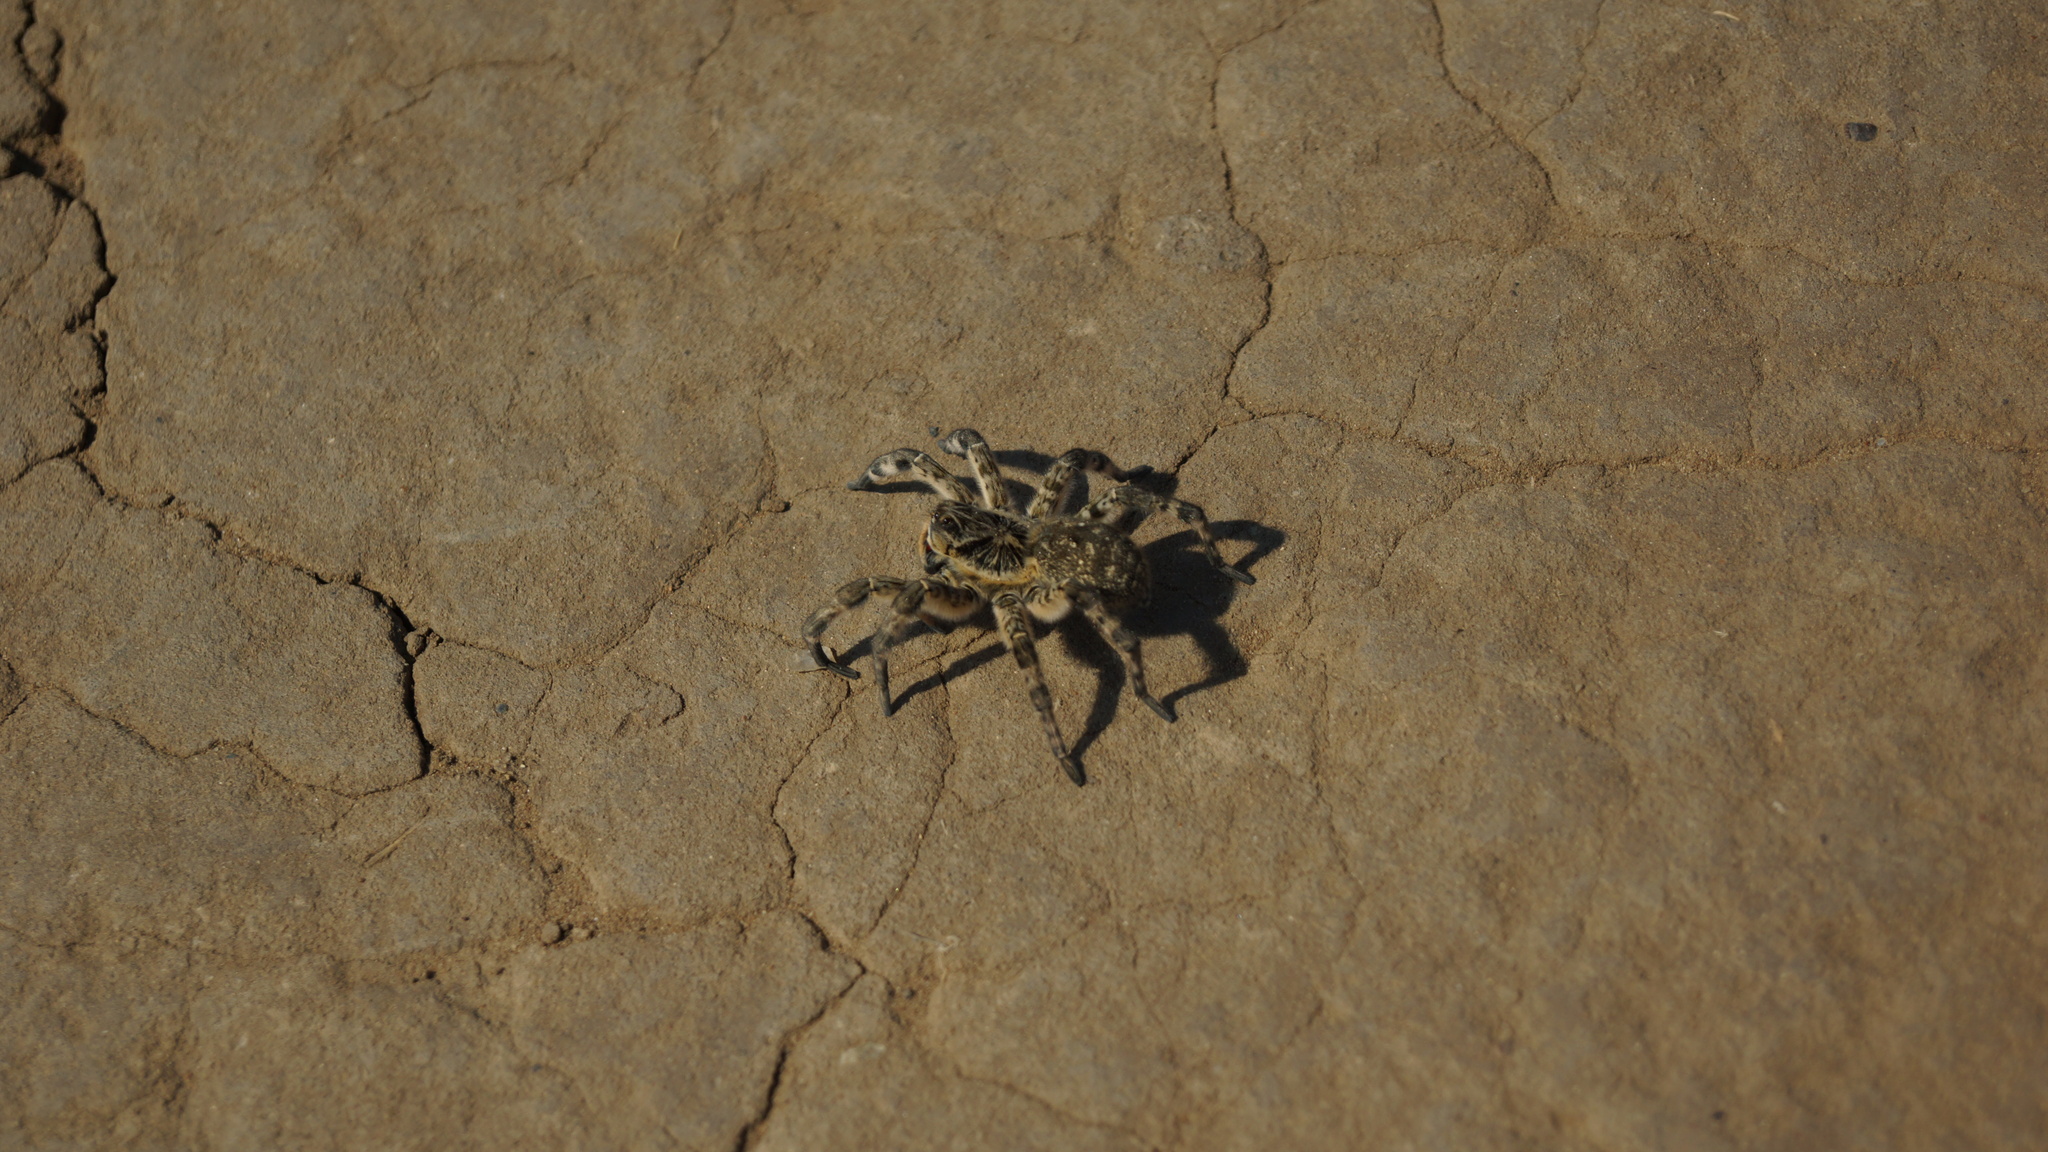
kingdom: Animalia
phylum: Arthropoda
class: Arachnida
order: Araneae
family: Lycosidae
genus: Lycosa
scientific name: Lycosa singoriensis
